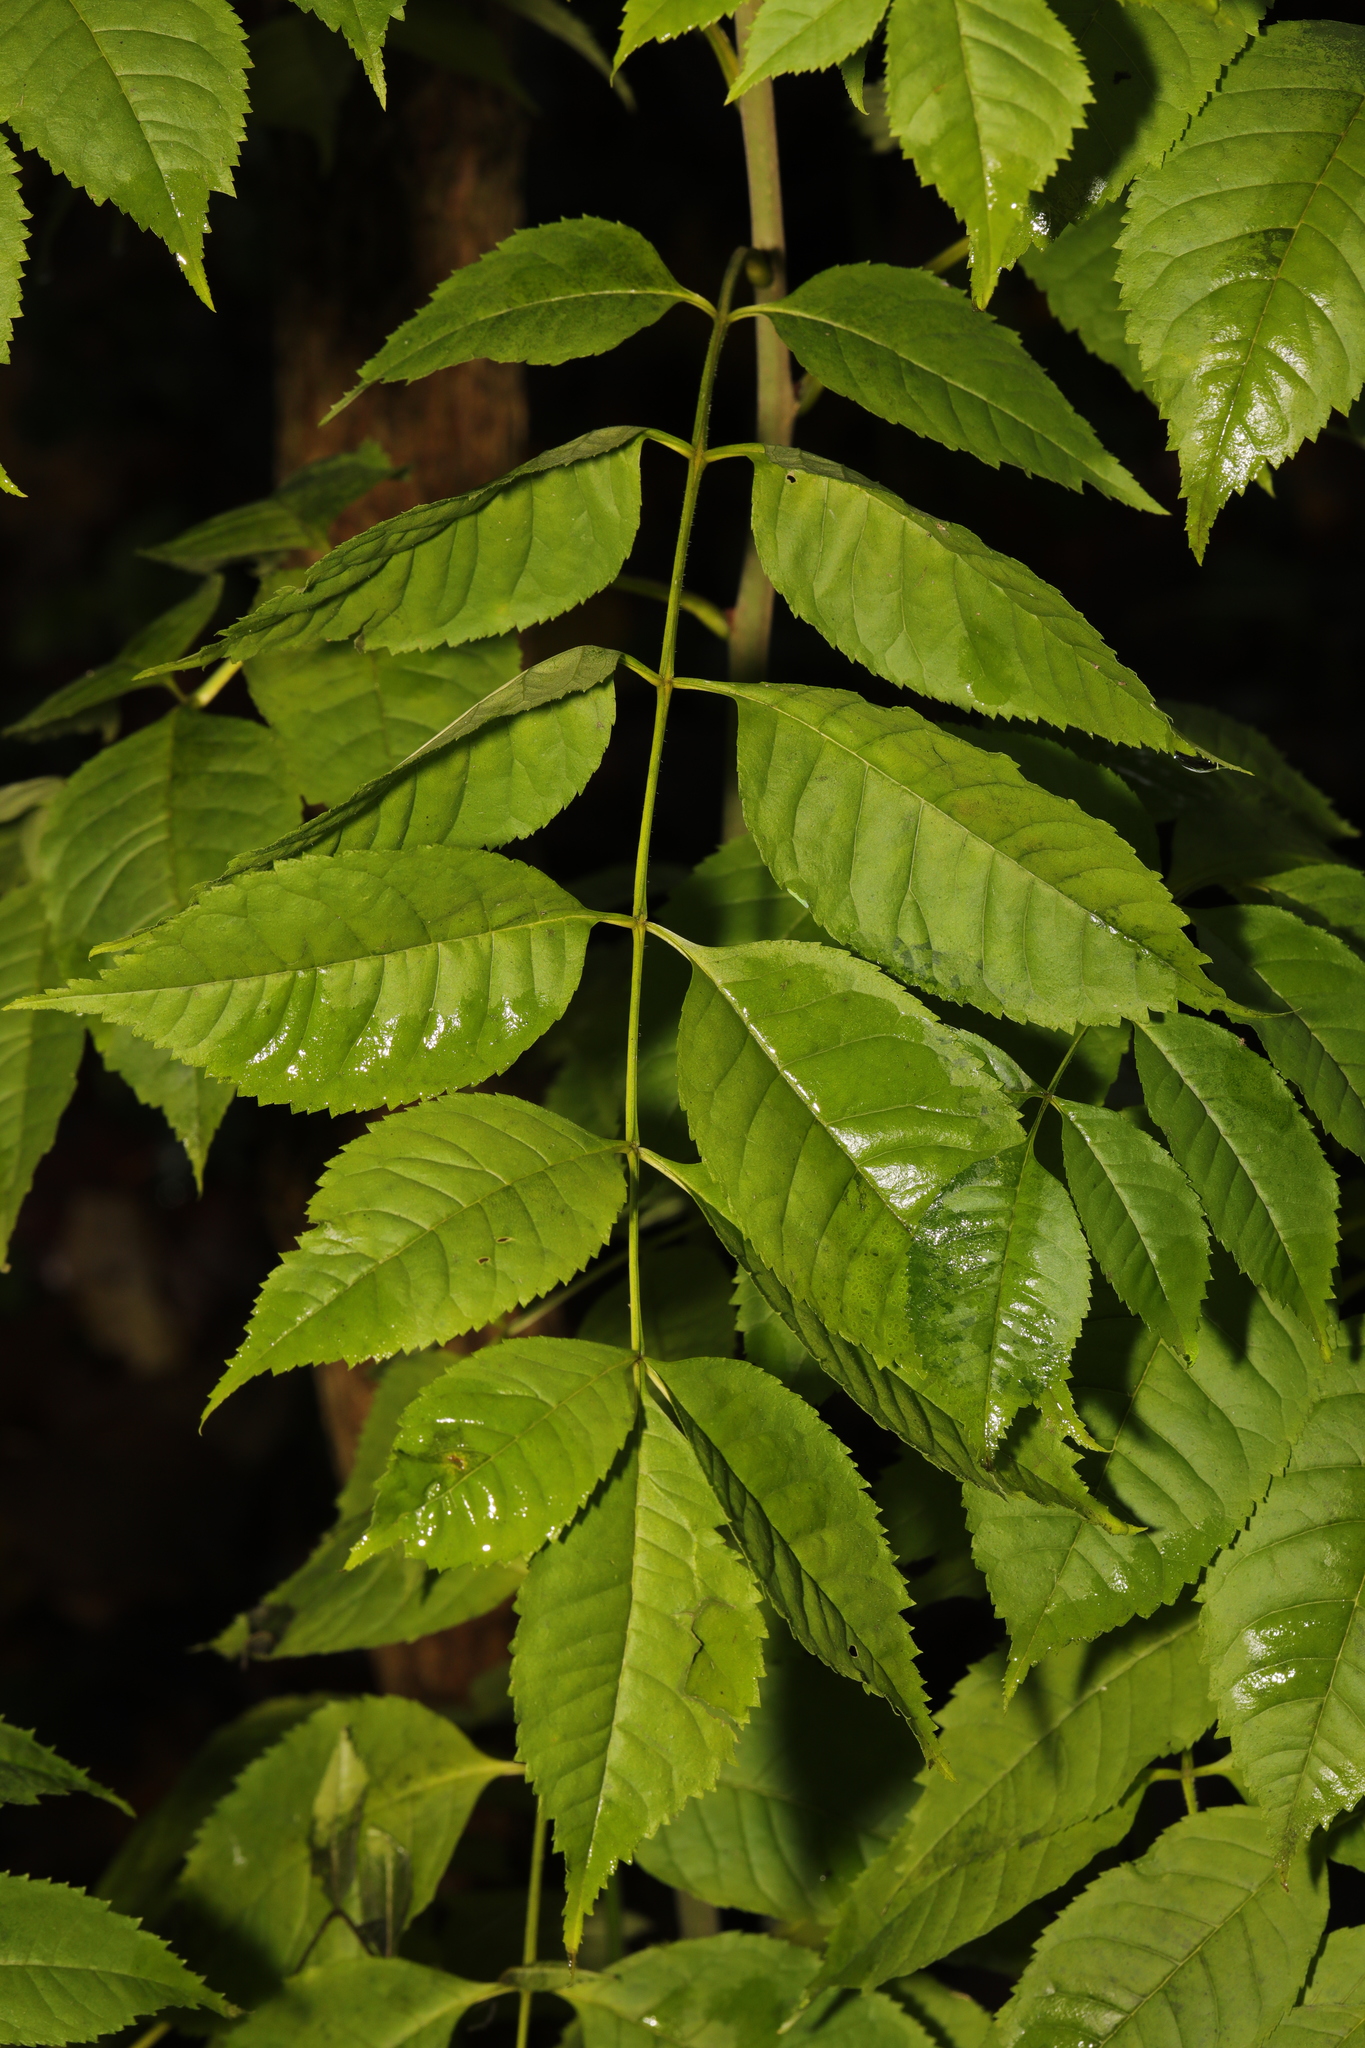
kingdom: Plantae
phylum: Tracheophyta
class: Magnoliopsida
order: Lamiales
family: Oleaceae
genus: Fraxinus
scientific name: Fraxinus excelsior
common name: European ash
